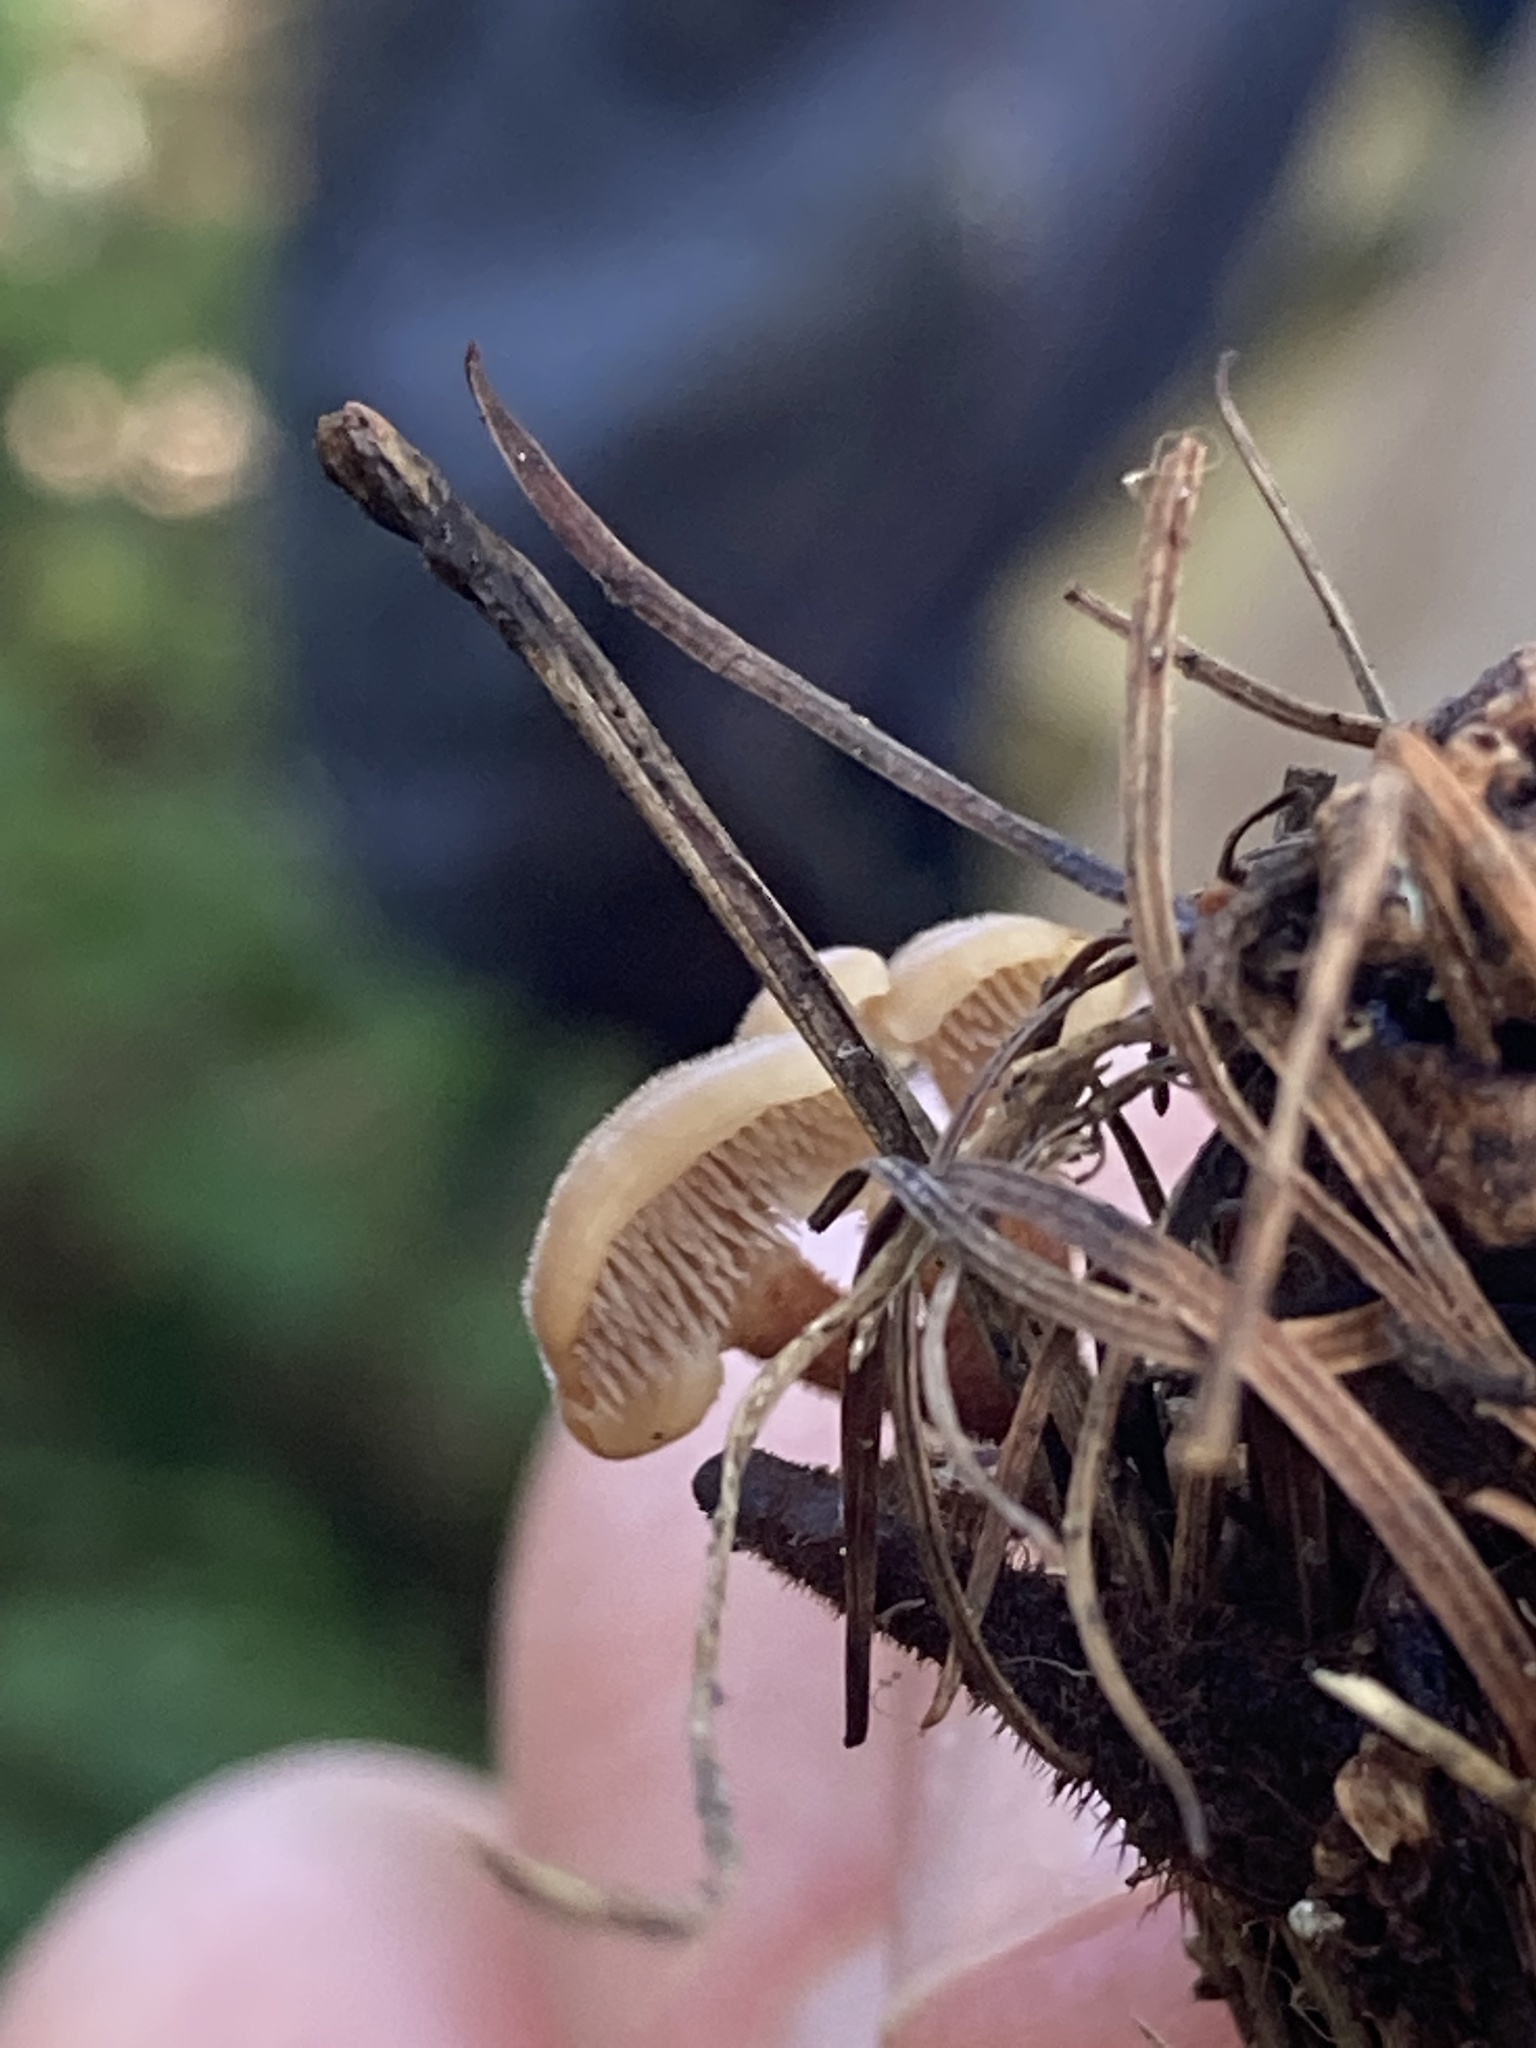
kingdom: Fungi
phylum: Basidiomycota
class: Agaricomycetes
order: Russulales
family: Auriscalpiaceae
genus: Auriscalpium
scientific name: Auriscalpium vulgare
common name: Earpick fungus
